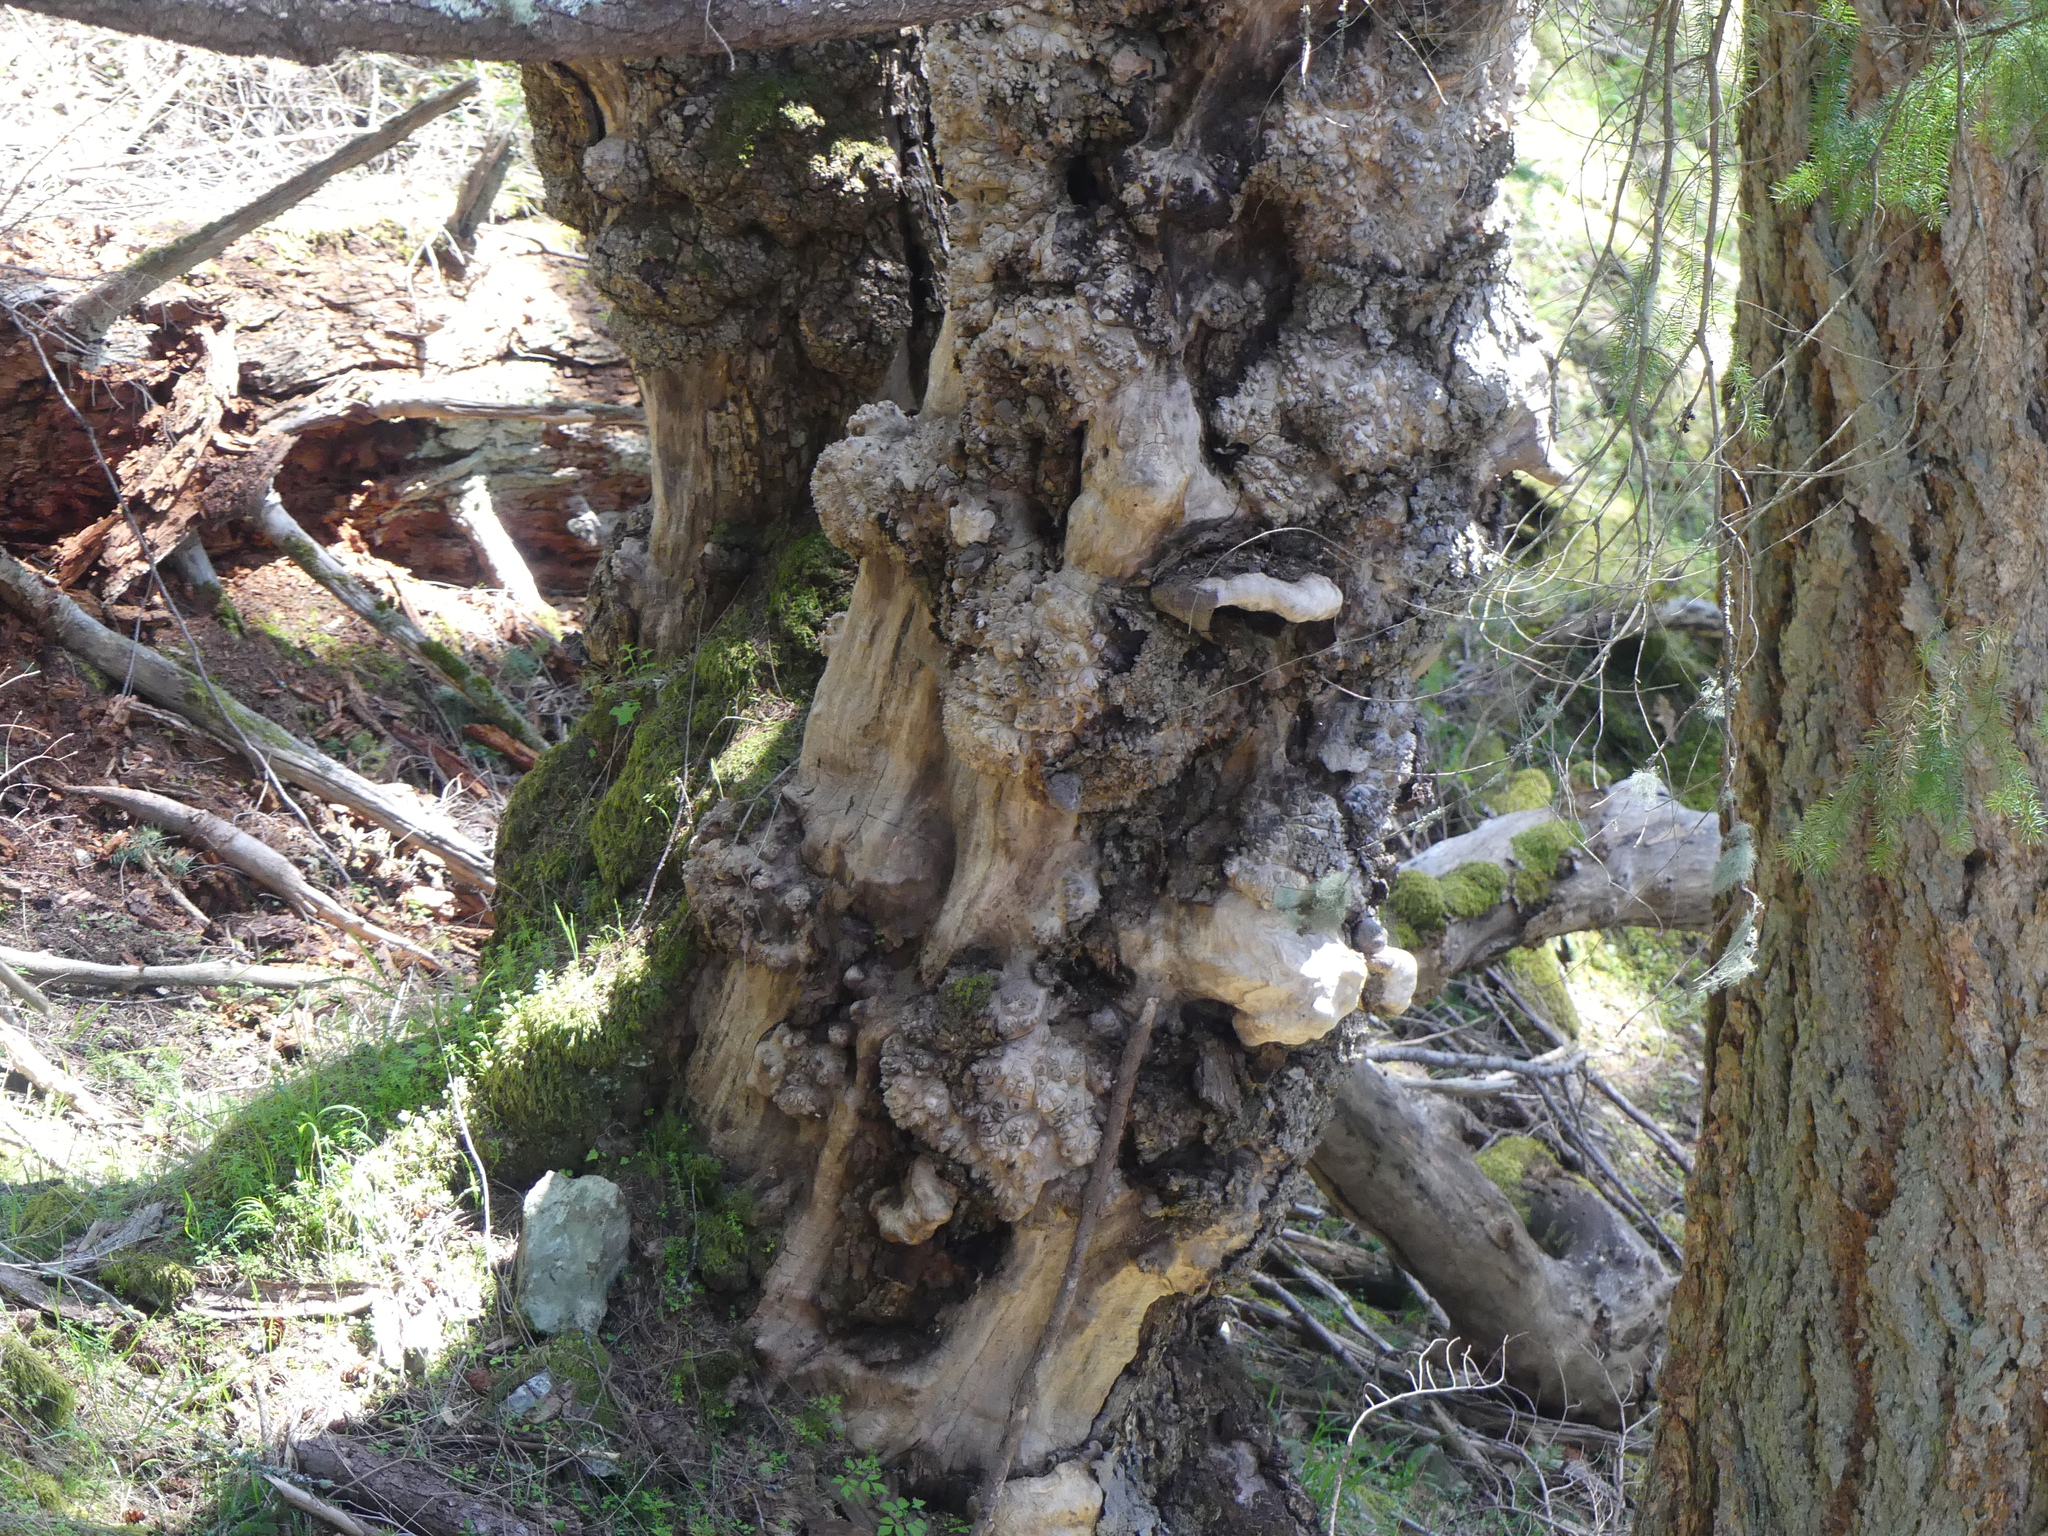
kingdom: Plantae
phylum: Tracheophyta
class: Magnoliopsida
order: Ericales
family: Ericaceae
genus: Arbutus
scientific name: Arbutus menziesii
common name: Pacific madrone
